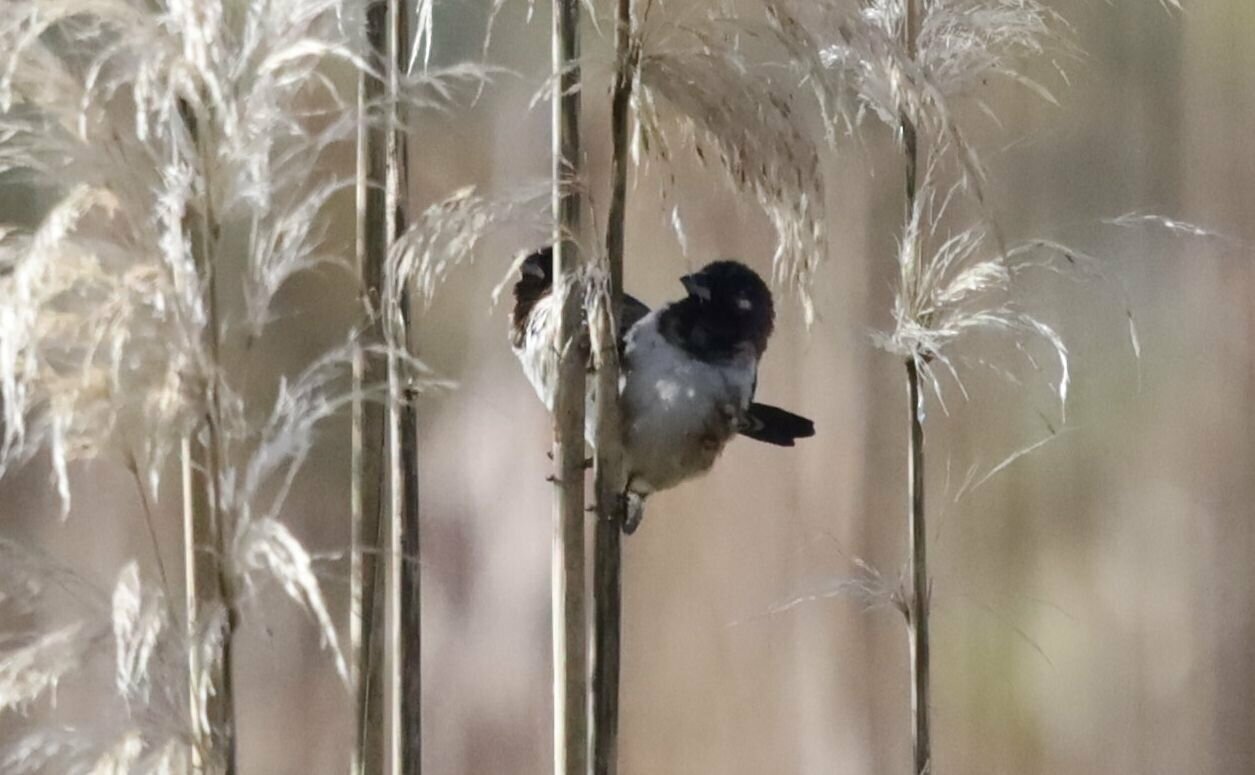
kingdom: Animalia
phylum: Chordata
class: Aves
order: Passeriformes
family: Estrildidae
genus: Lonchura
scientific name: Lonchura cucullata
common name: Bronze mannikin
